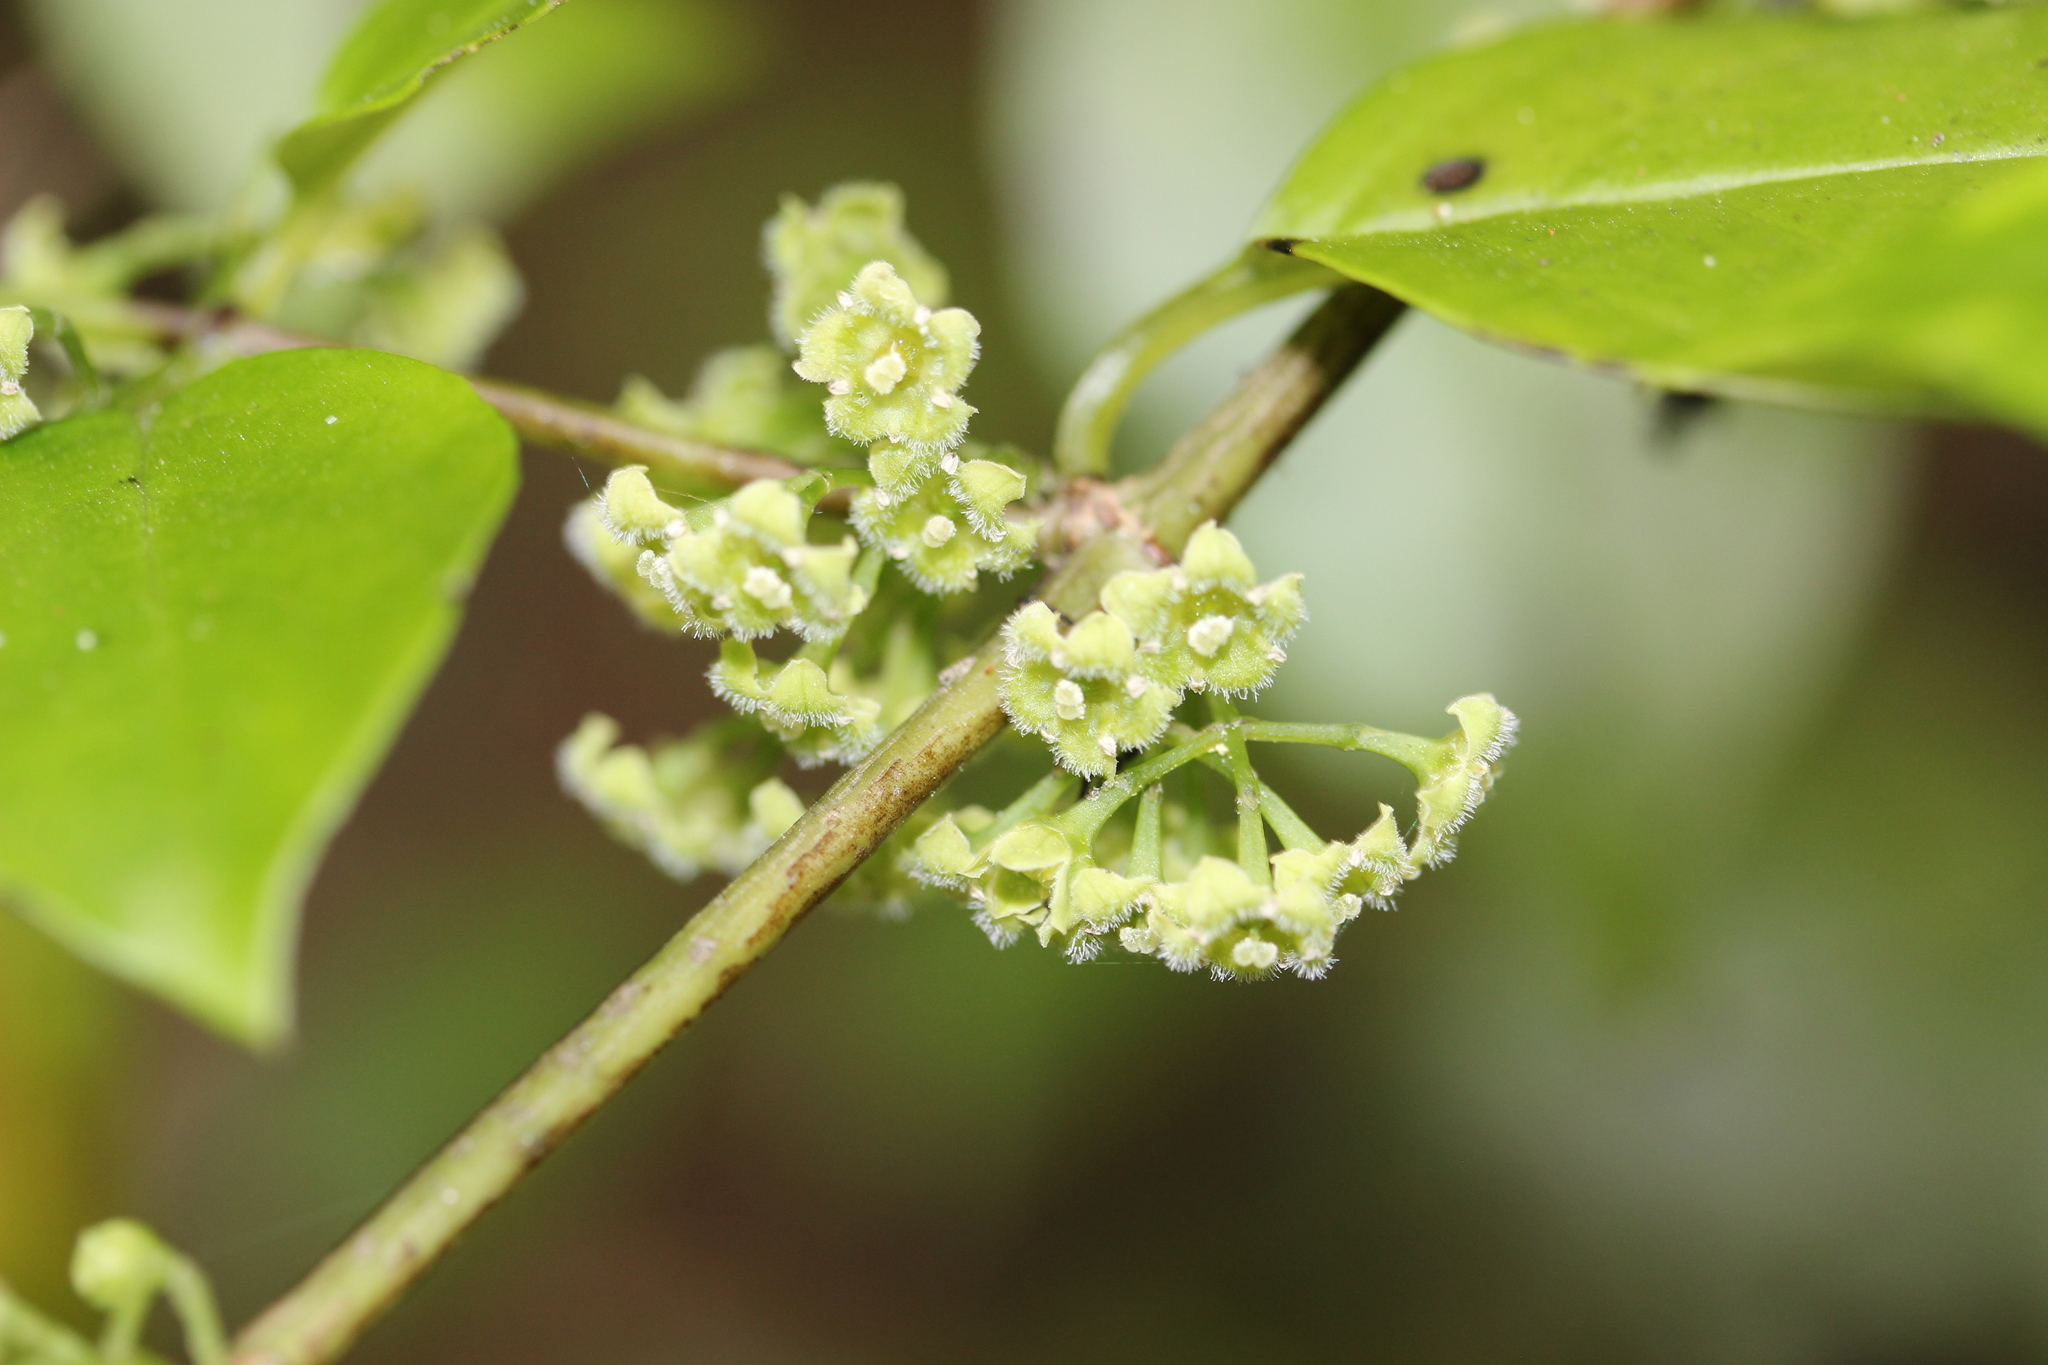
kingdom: Plantae
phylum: Tracheophyta
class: Magnoliopsida
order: Gentianales
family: Loganiaceae
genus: Geniostoma
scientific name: Geniostoma ligustrifolium
